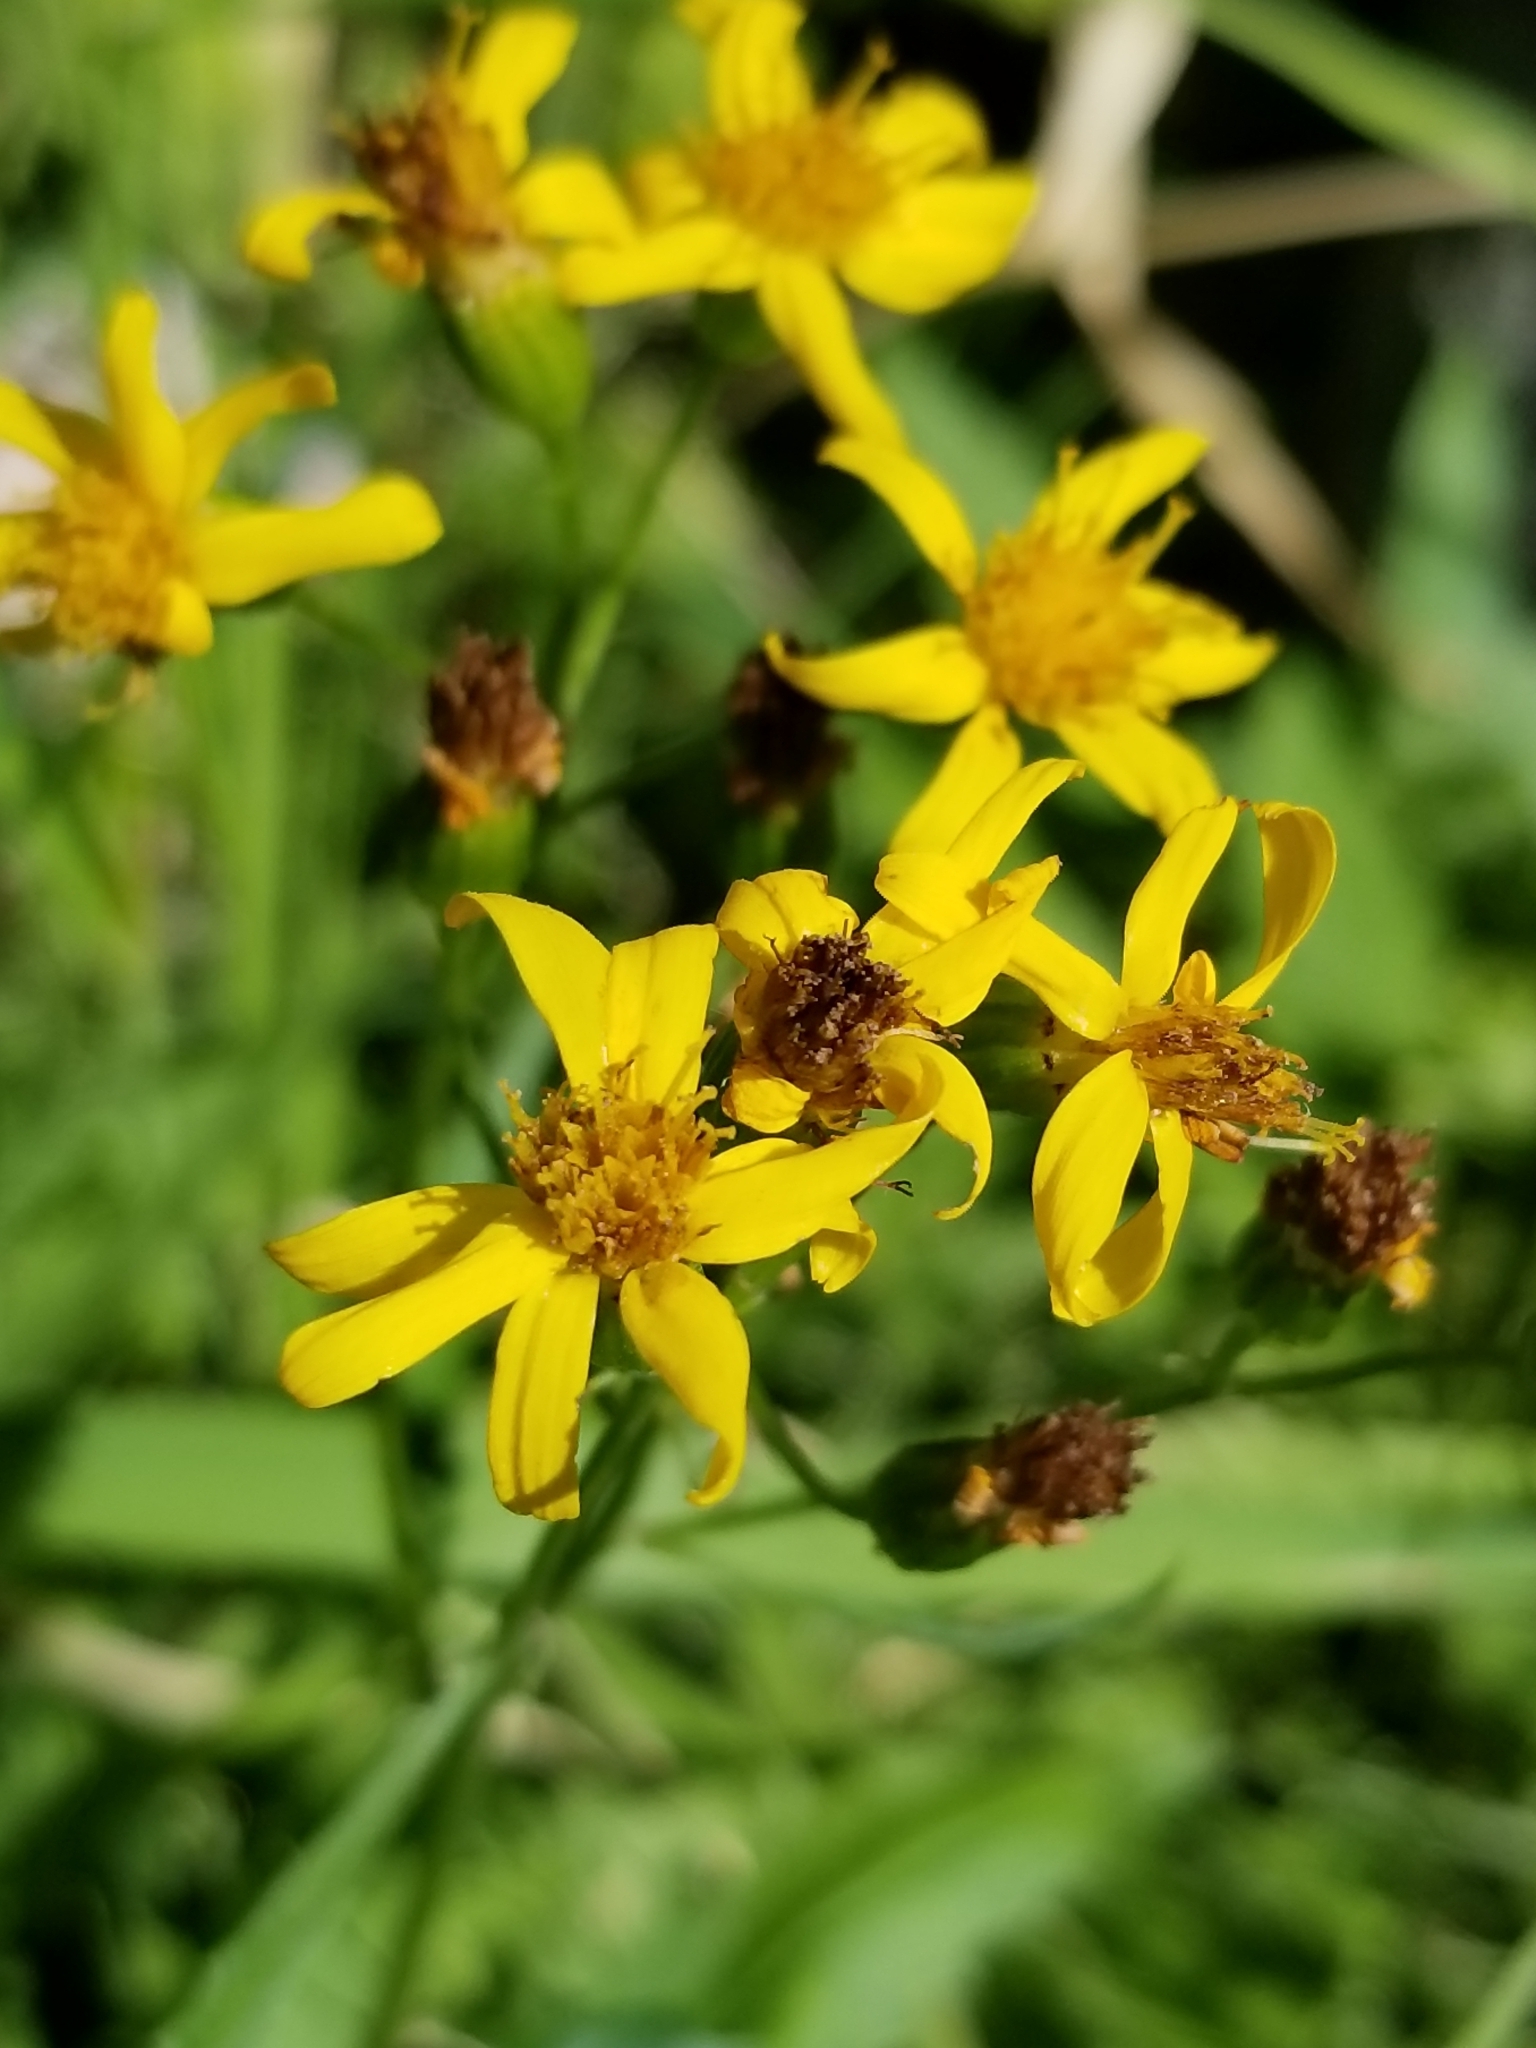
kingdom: Plantae
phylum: Tracheophyta
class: Magnoliopsida
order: Asterales
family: Asteraceae
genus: Senecio
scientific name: Senecio triangularis
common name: Arrowleaf butterweed
